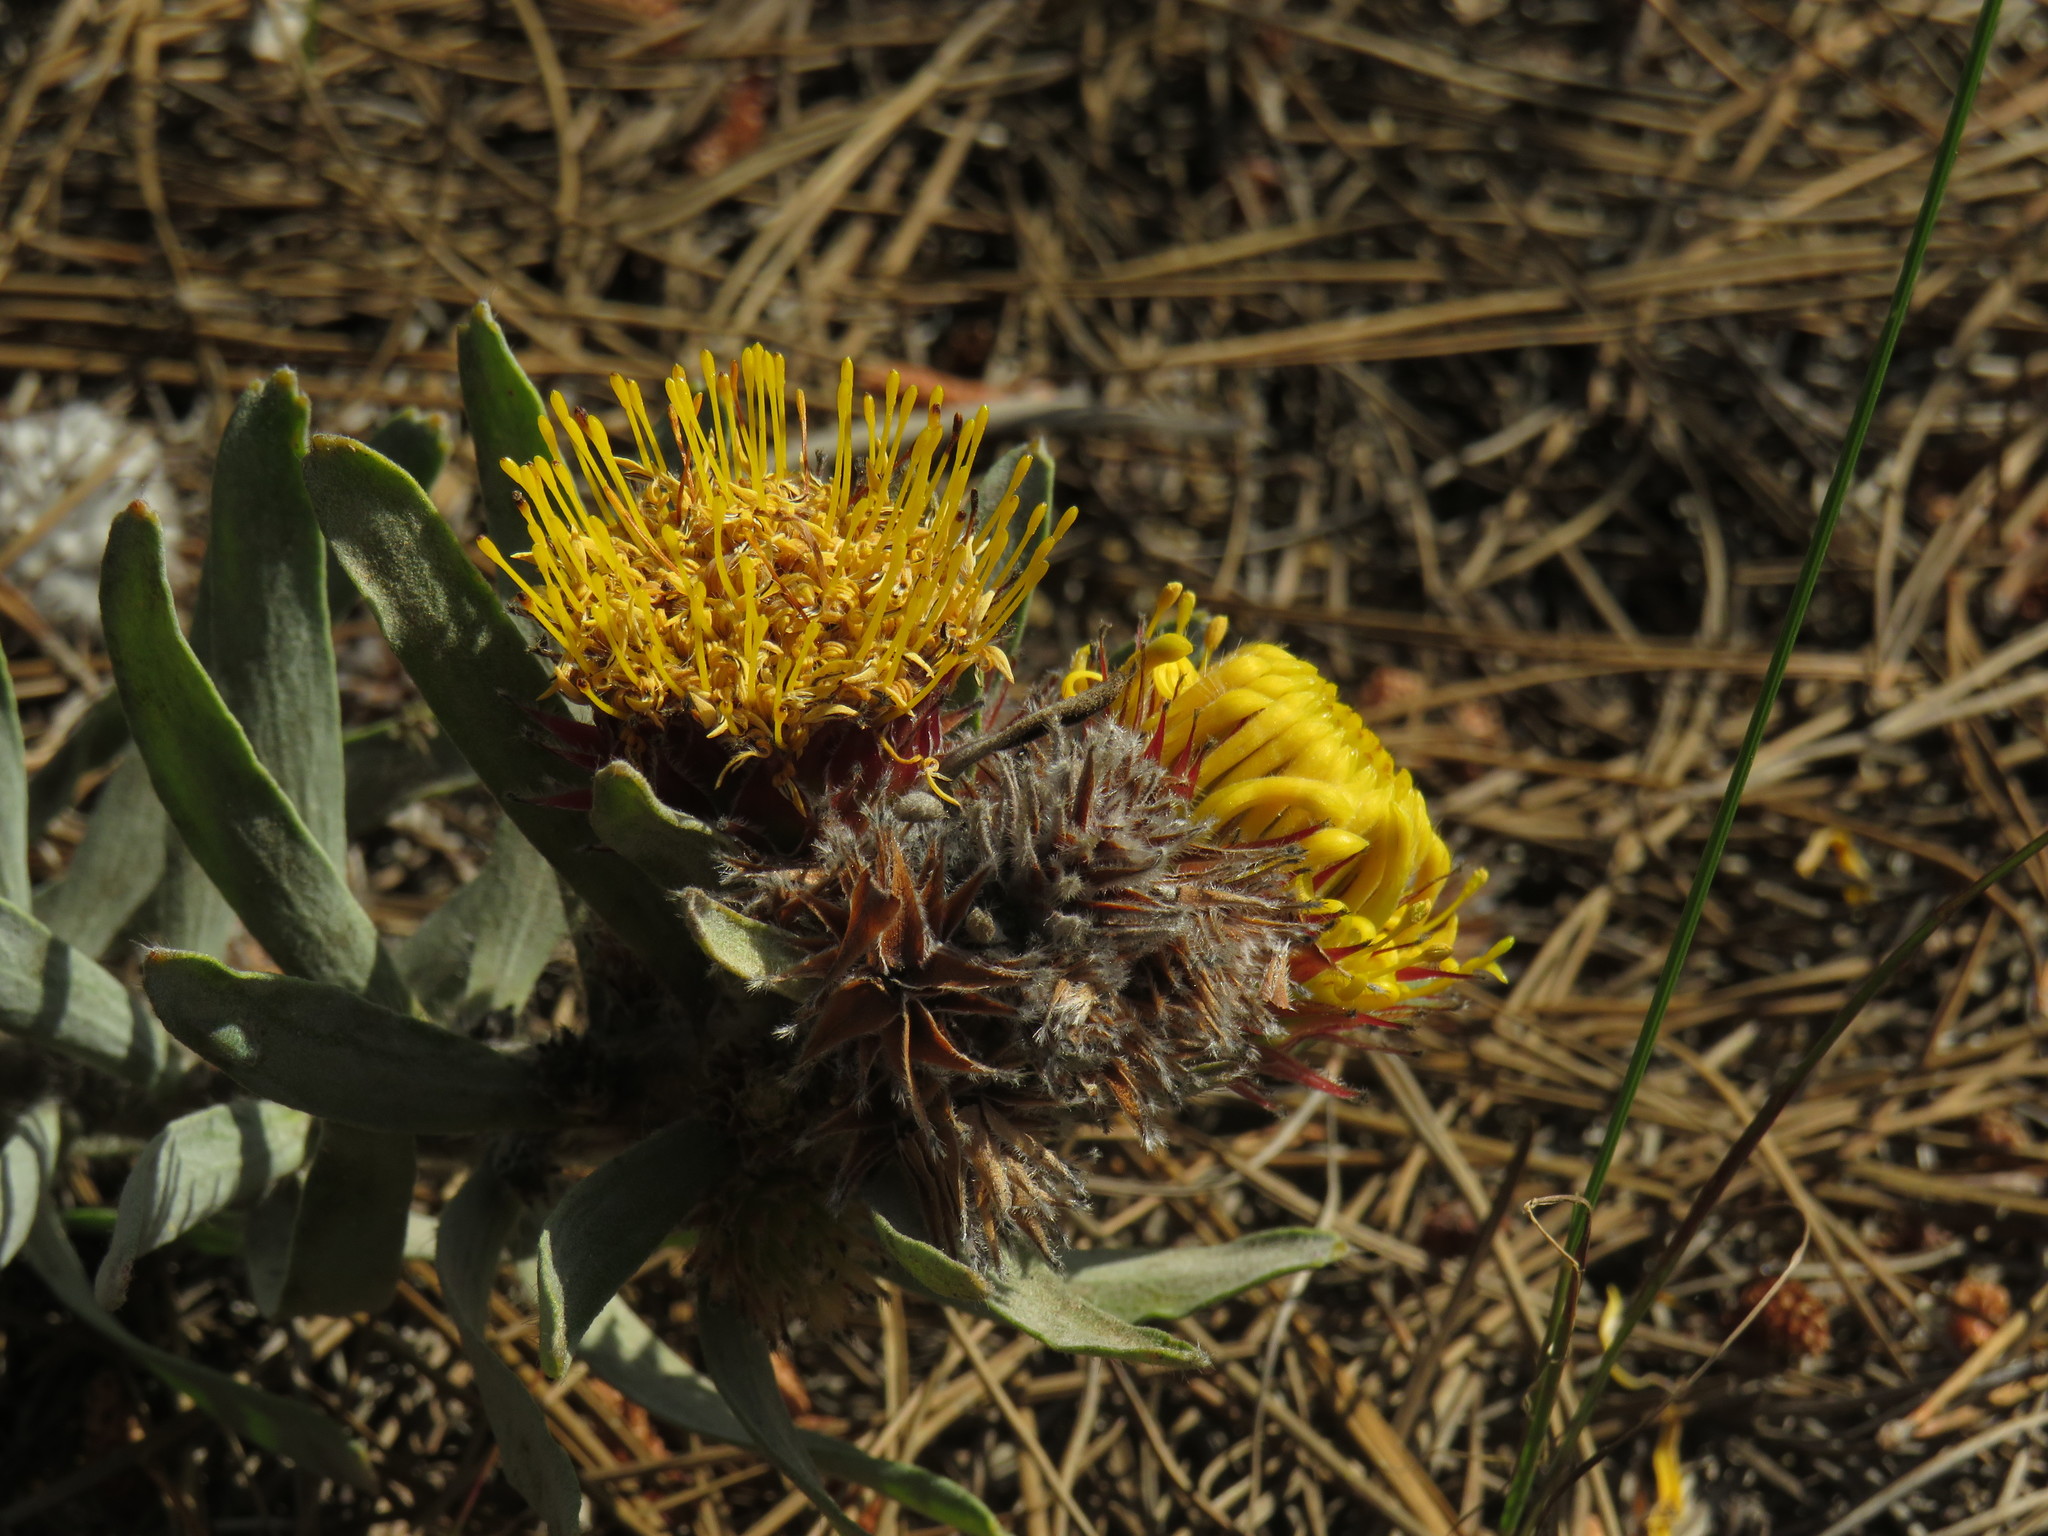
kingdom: Plantae
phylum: Tracheophyta
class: Magnoliopsida
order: Proteales
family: Proteaceae
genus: Leucospermum
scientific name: Leucospermum parile
